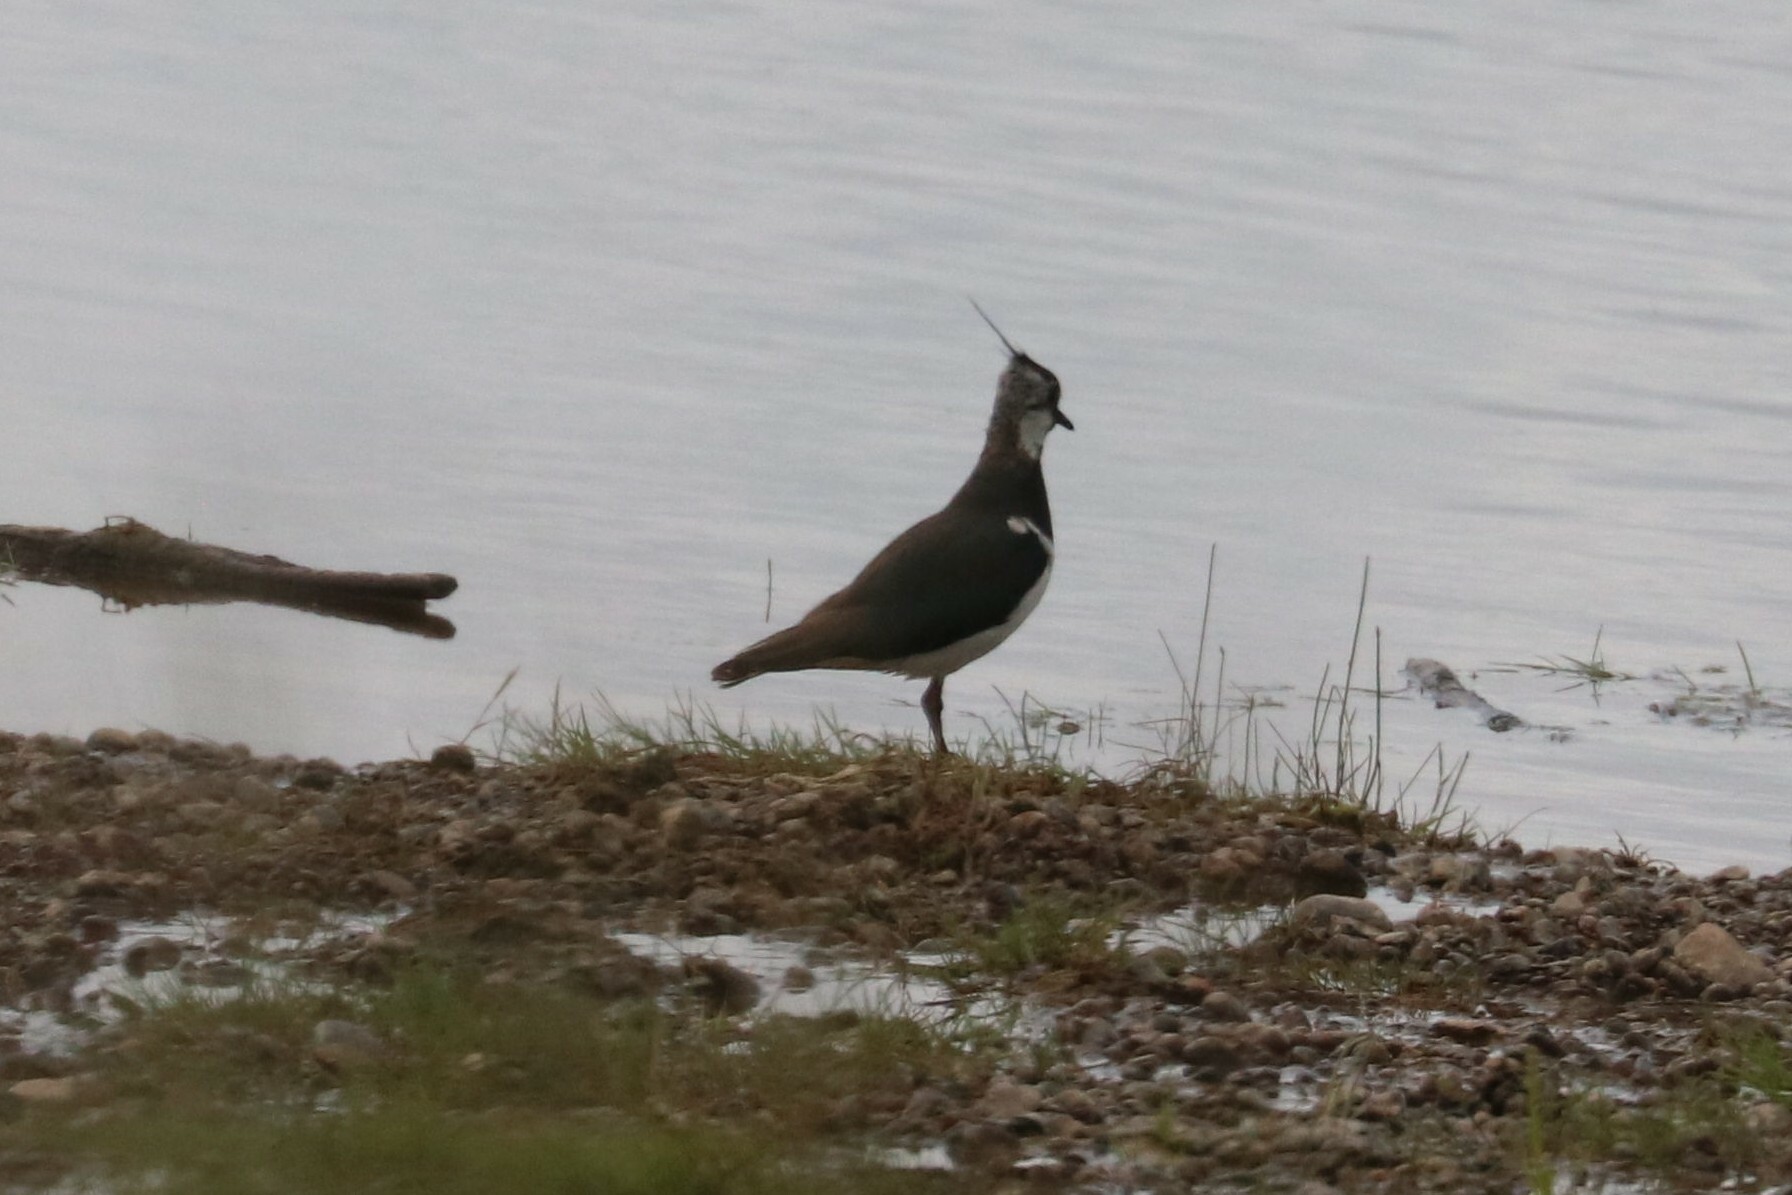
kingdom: Animalia
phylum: Chordata
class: Aves
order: Charadriiformes
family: Charadriidae
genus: Vanellus
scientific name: Vanellus vanellus
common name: Northern lapwing
